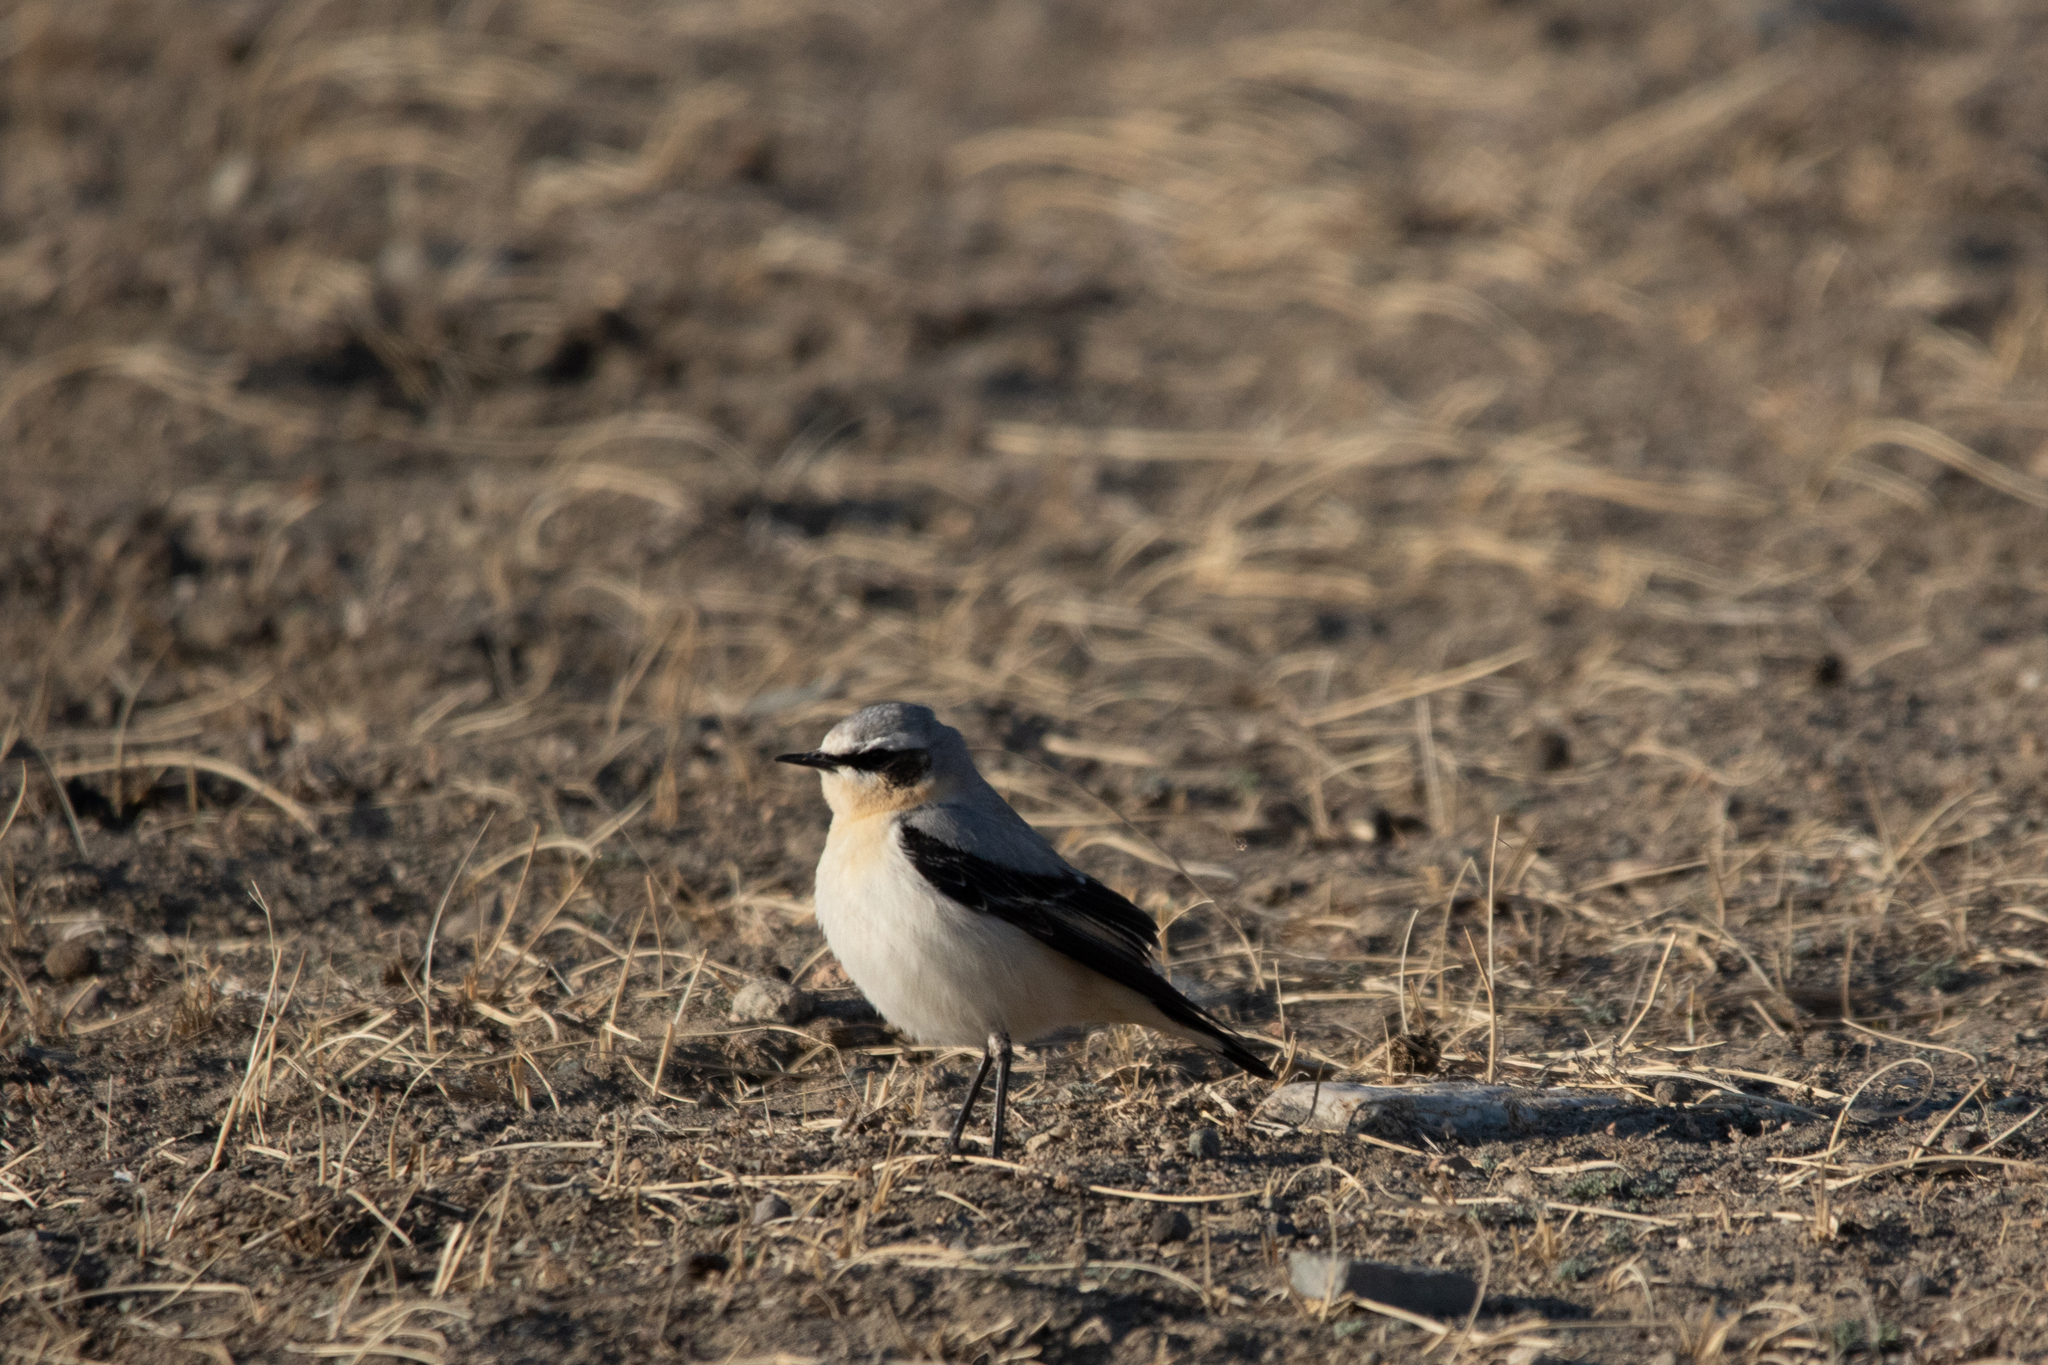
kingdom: Animalia
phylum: Chordata
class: Aves
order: Passeriformes
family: Muscicapidae
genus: Oenanthe
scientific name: Oenanthe oenanthe
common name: Northern wheatear
